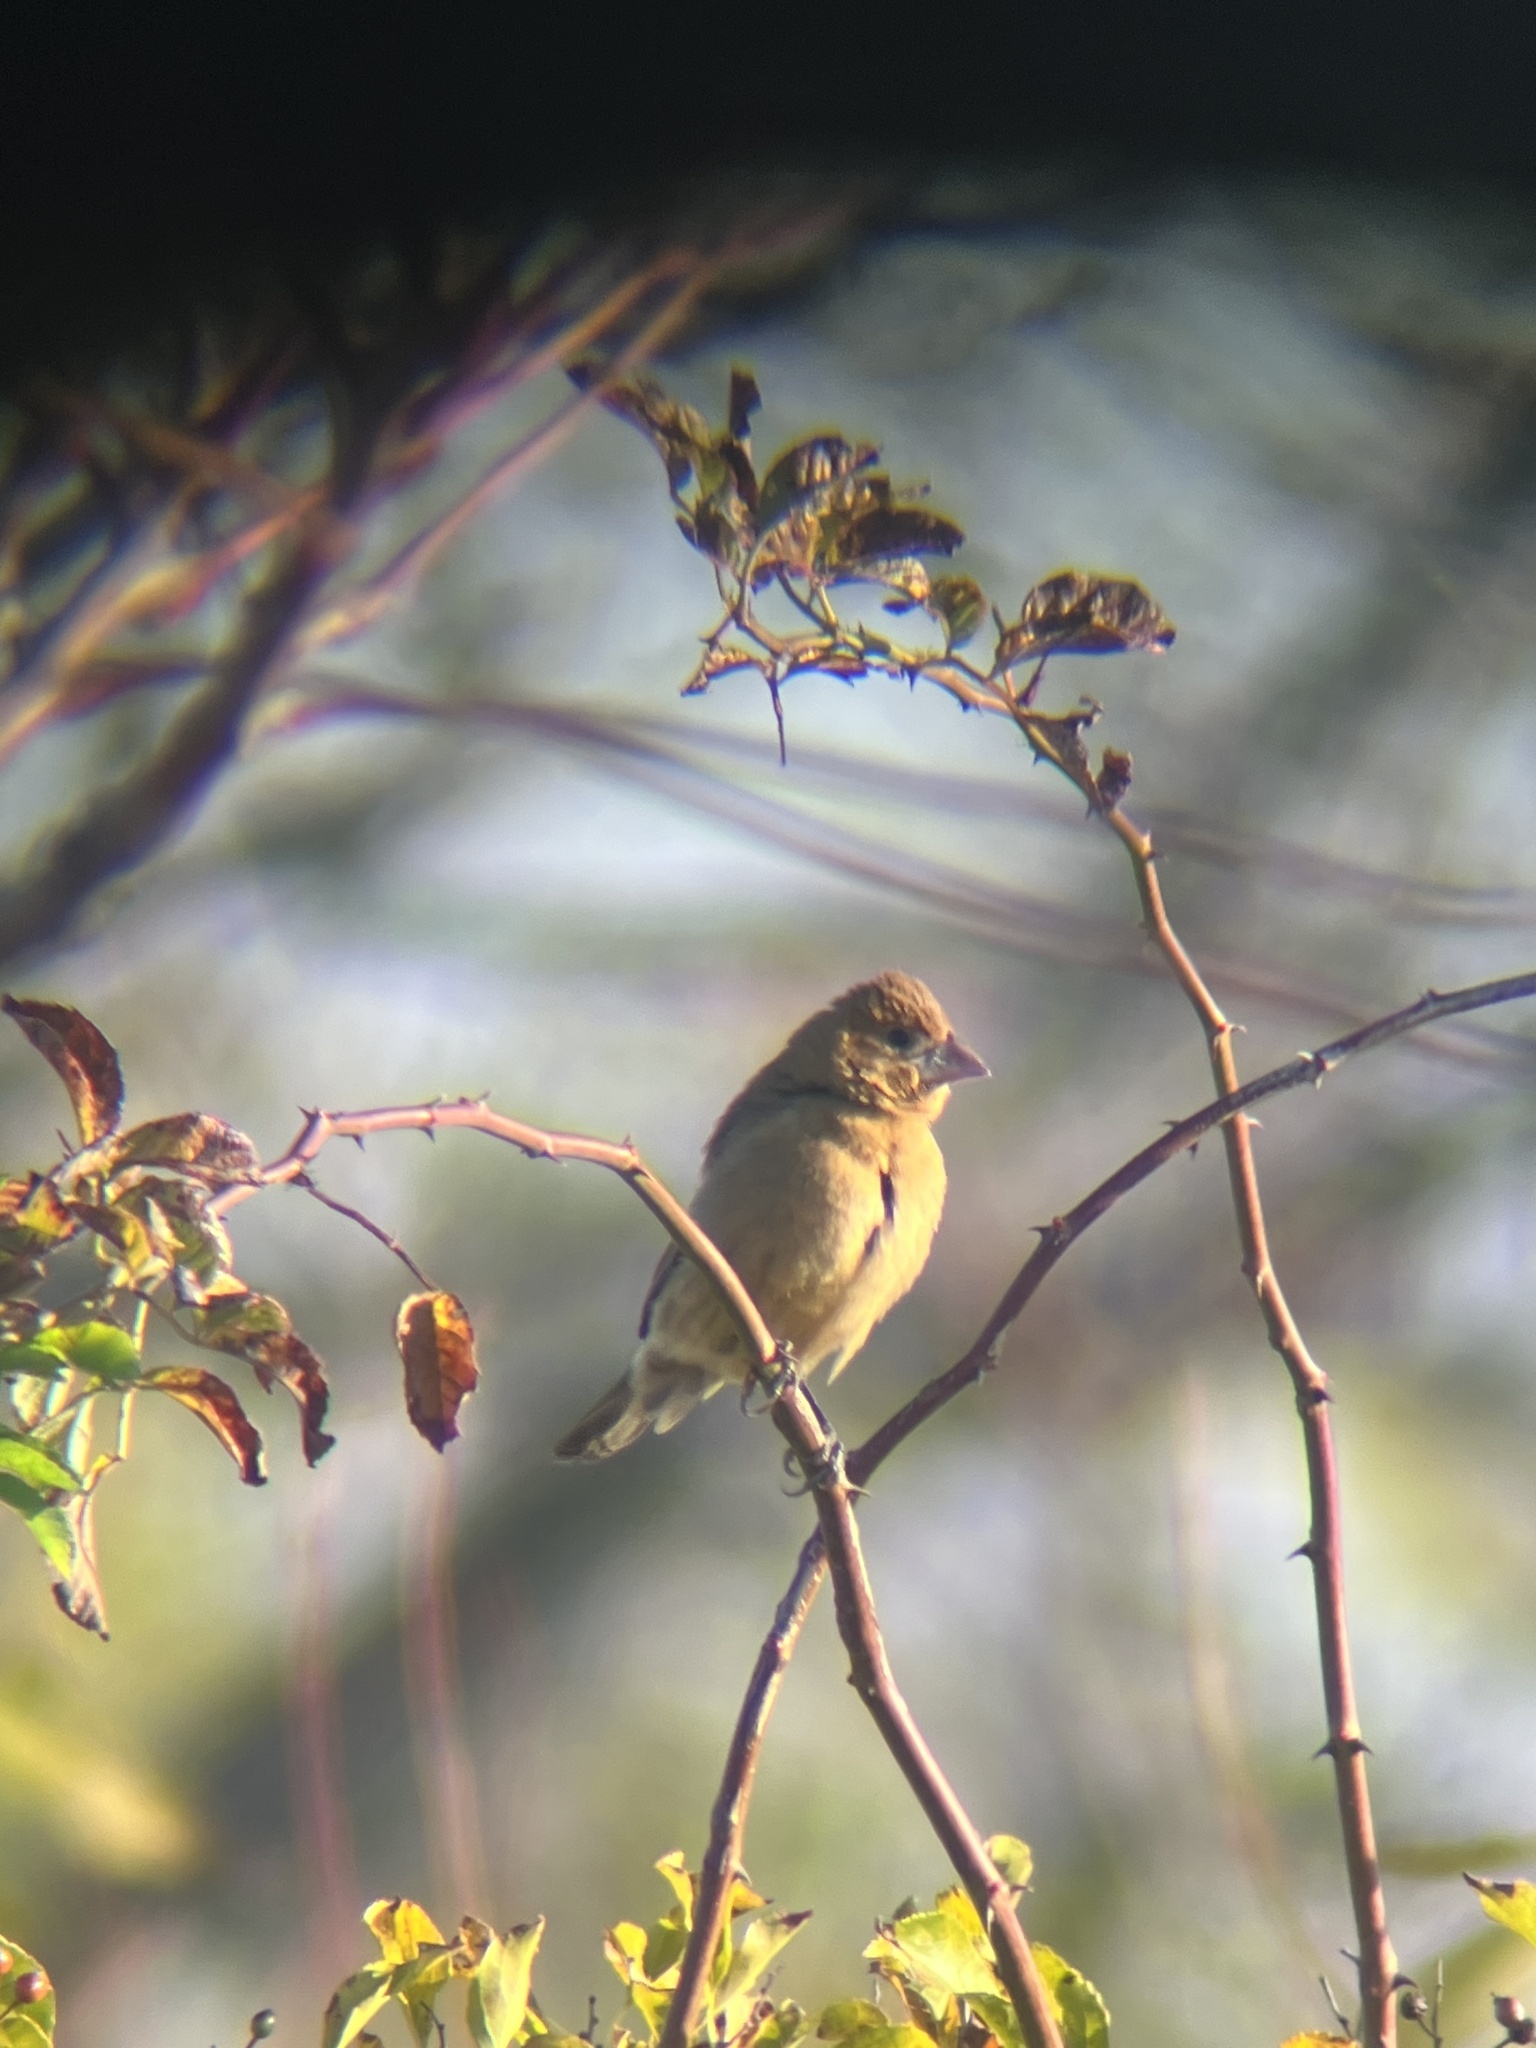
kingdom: Animalia
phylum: Chordata
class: Aves
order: Passeriformes
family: Cardinalidae
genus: Passerina
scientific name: Passerina caerulea
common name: Blue grosbeak
